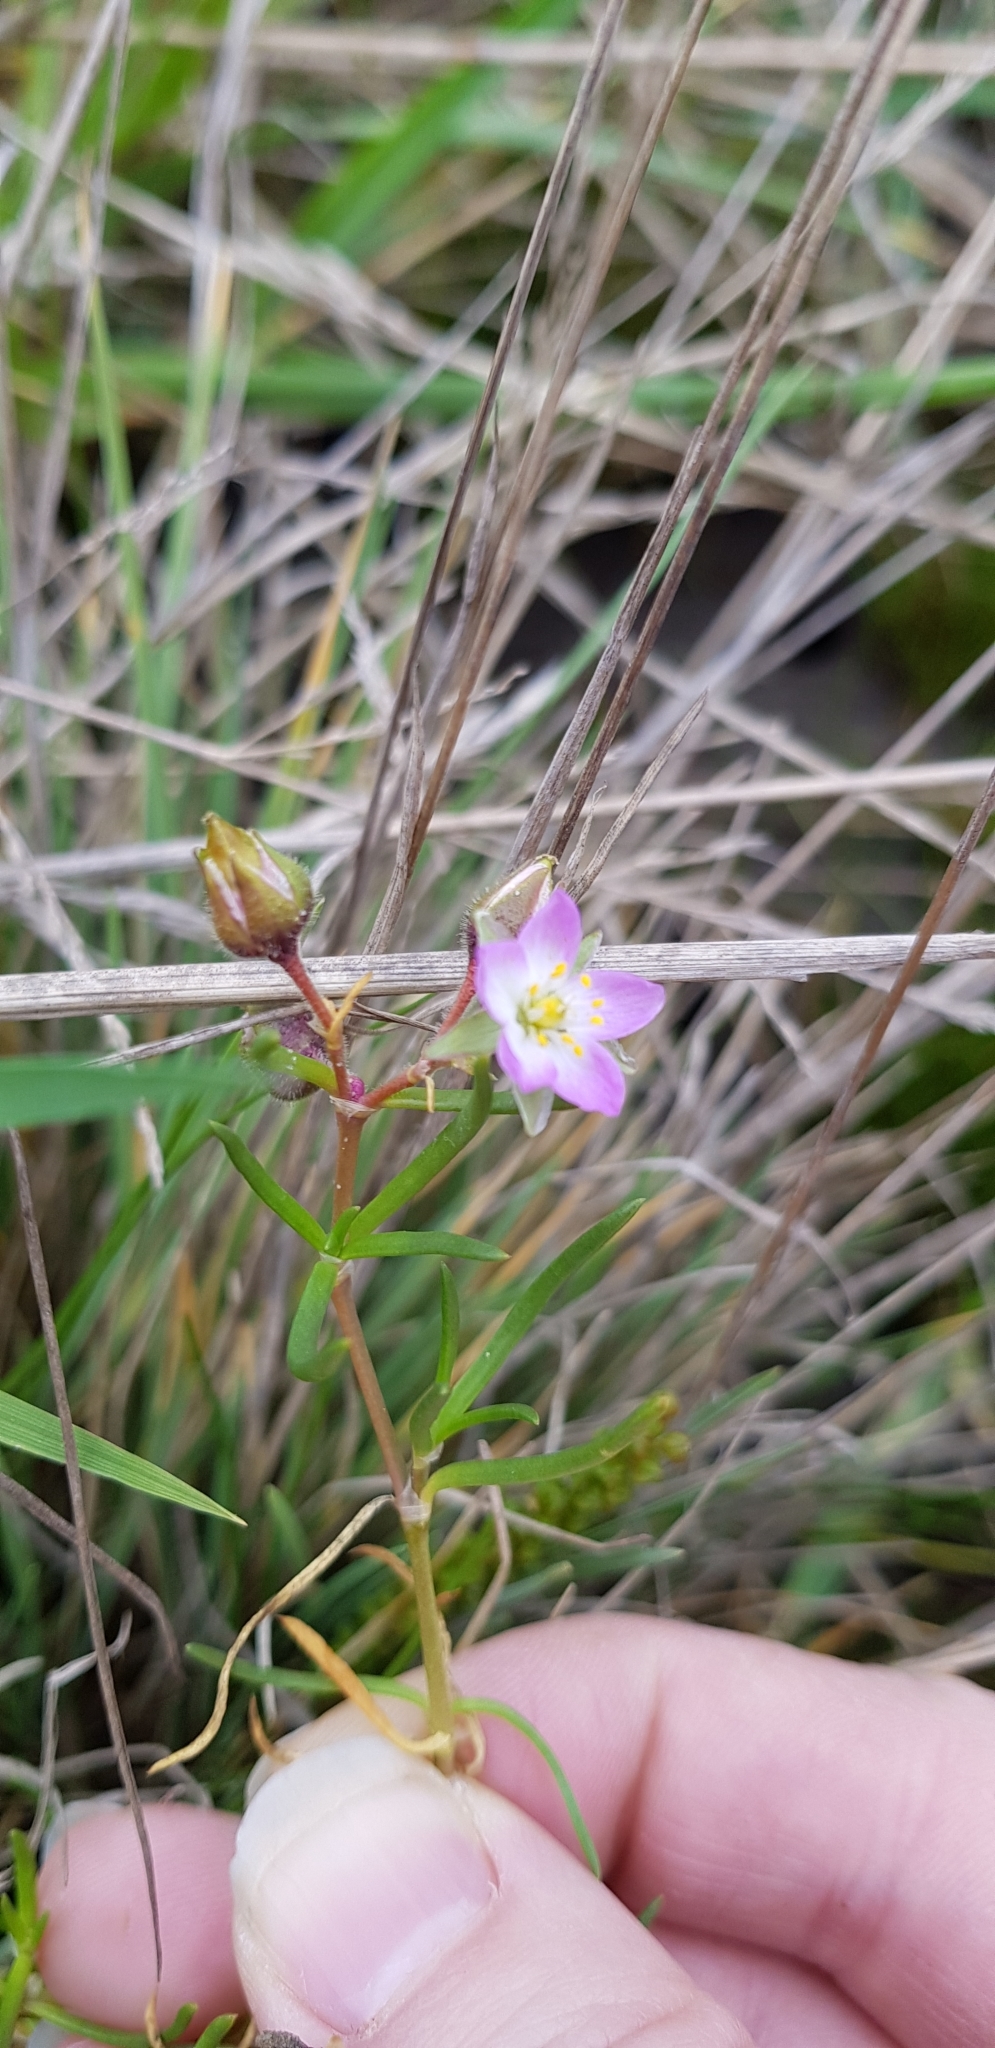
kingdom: Plantae
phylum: Tracheophyta
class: Magnoliopsida
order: Caryophyllales
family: Caryophyllaceae
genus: Spergularia
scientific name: Spergularia media
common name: Greater sea-spurrey
